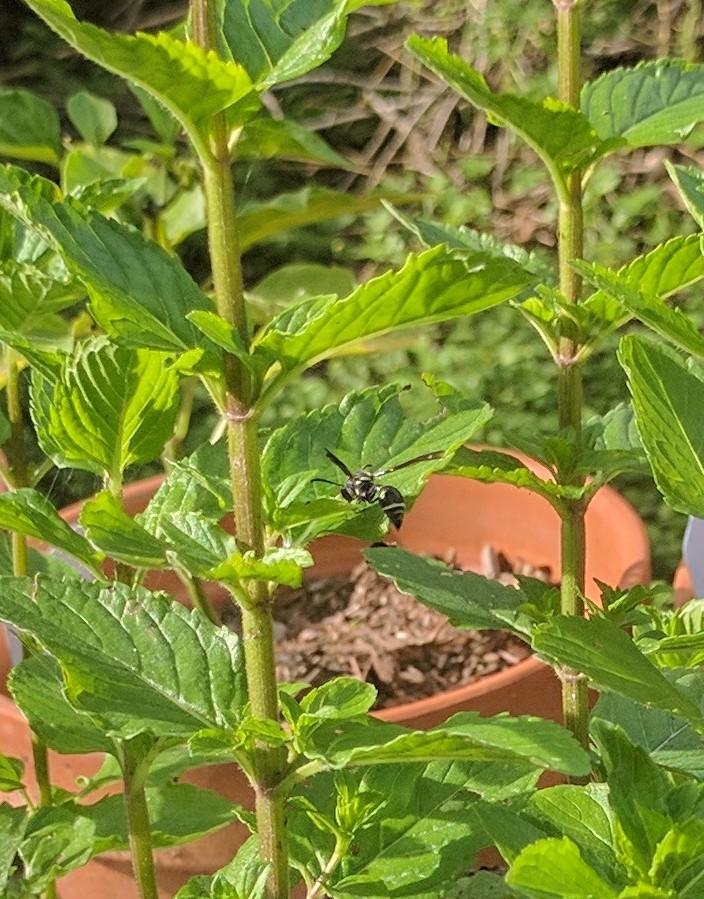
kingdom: Animalia
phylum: Arthropoda
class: Insecta
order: Hymenoptera
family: Vespidae
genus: Eumenes
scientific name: Eumenes fraternus
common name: Fraternal potter wasp
